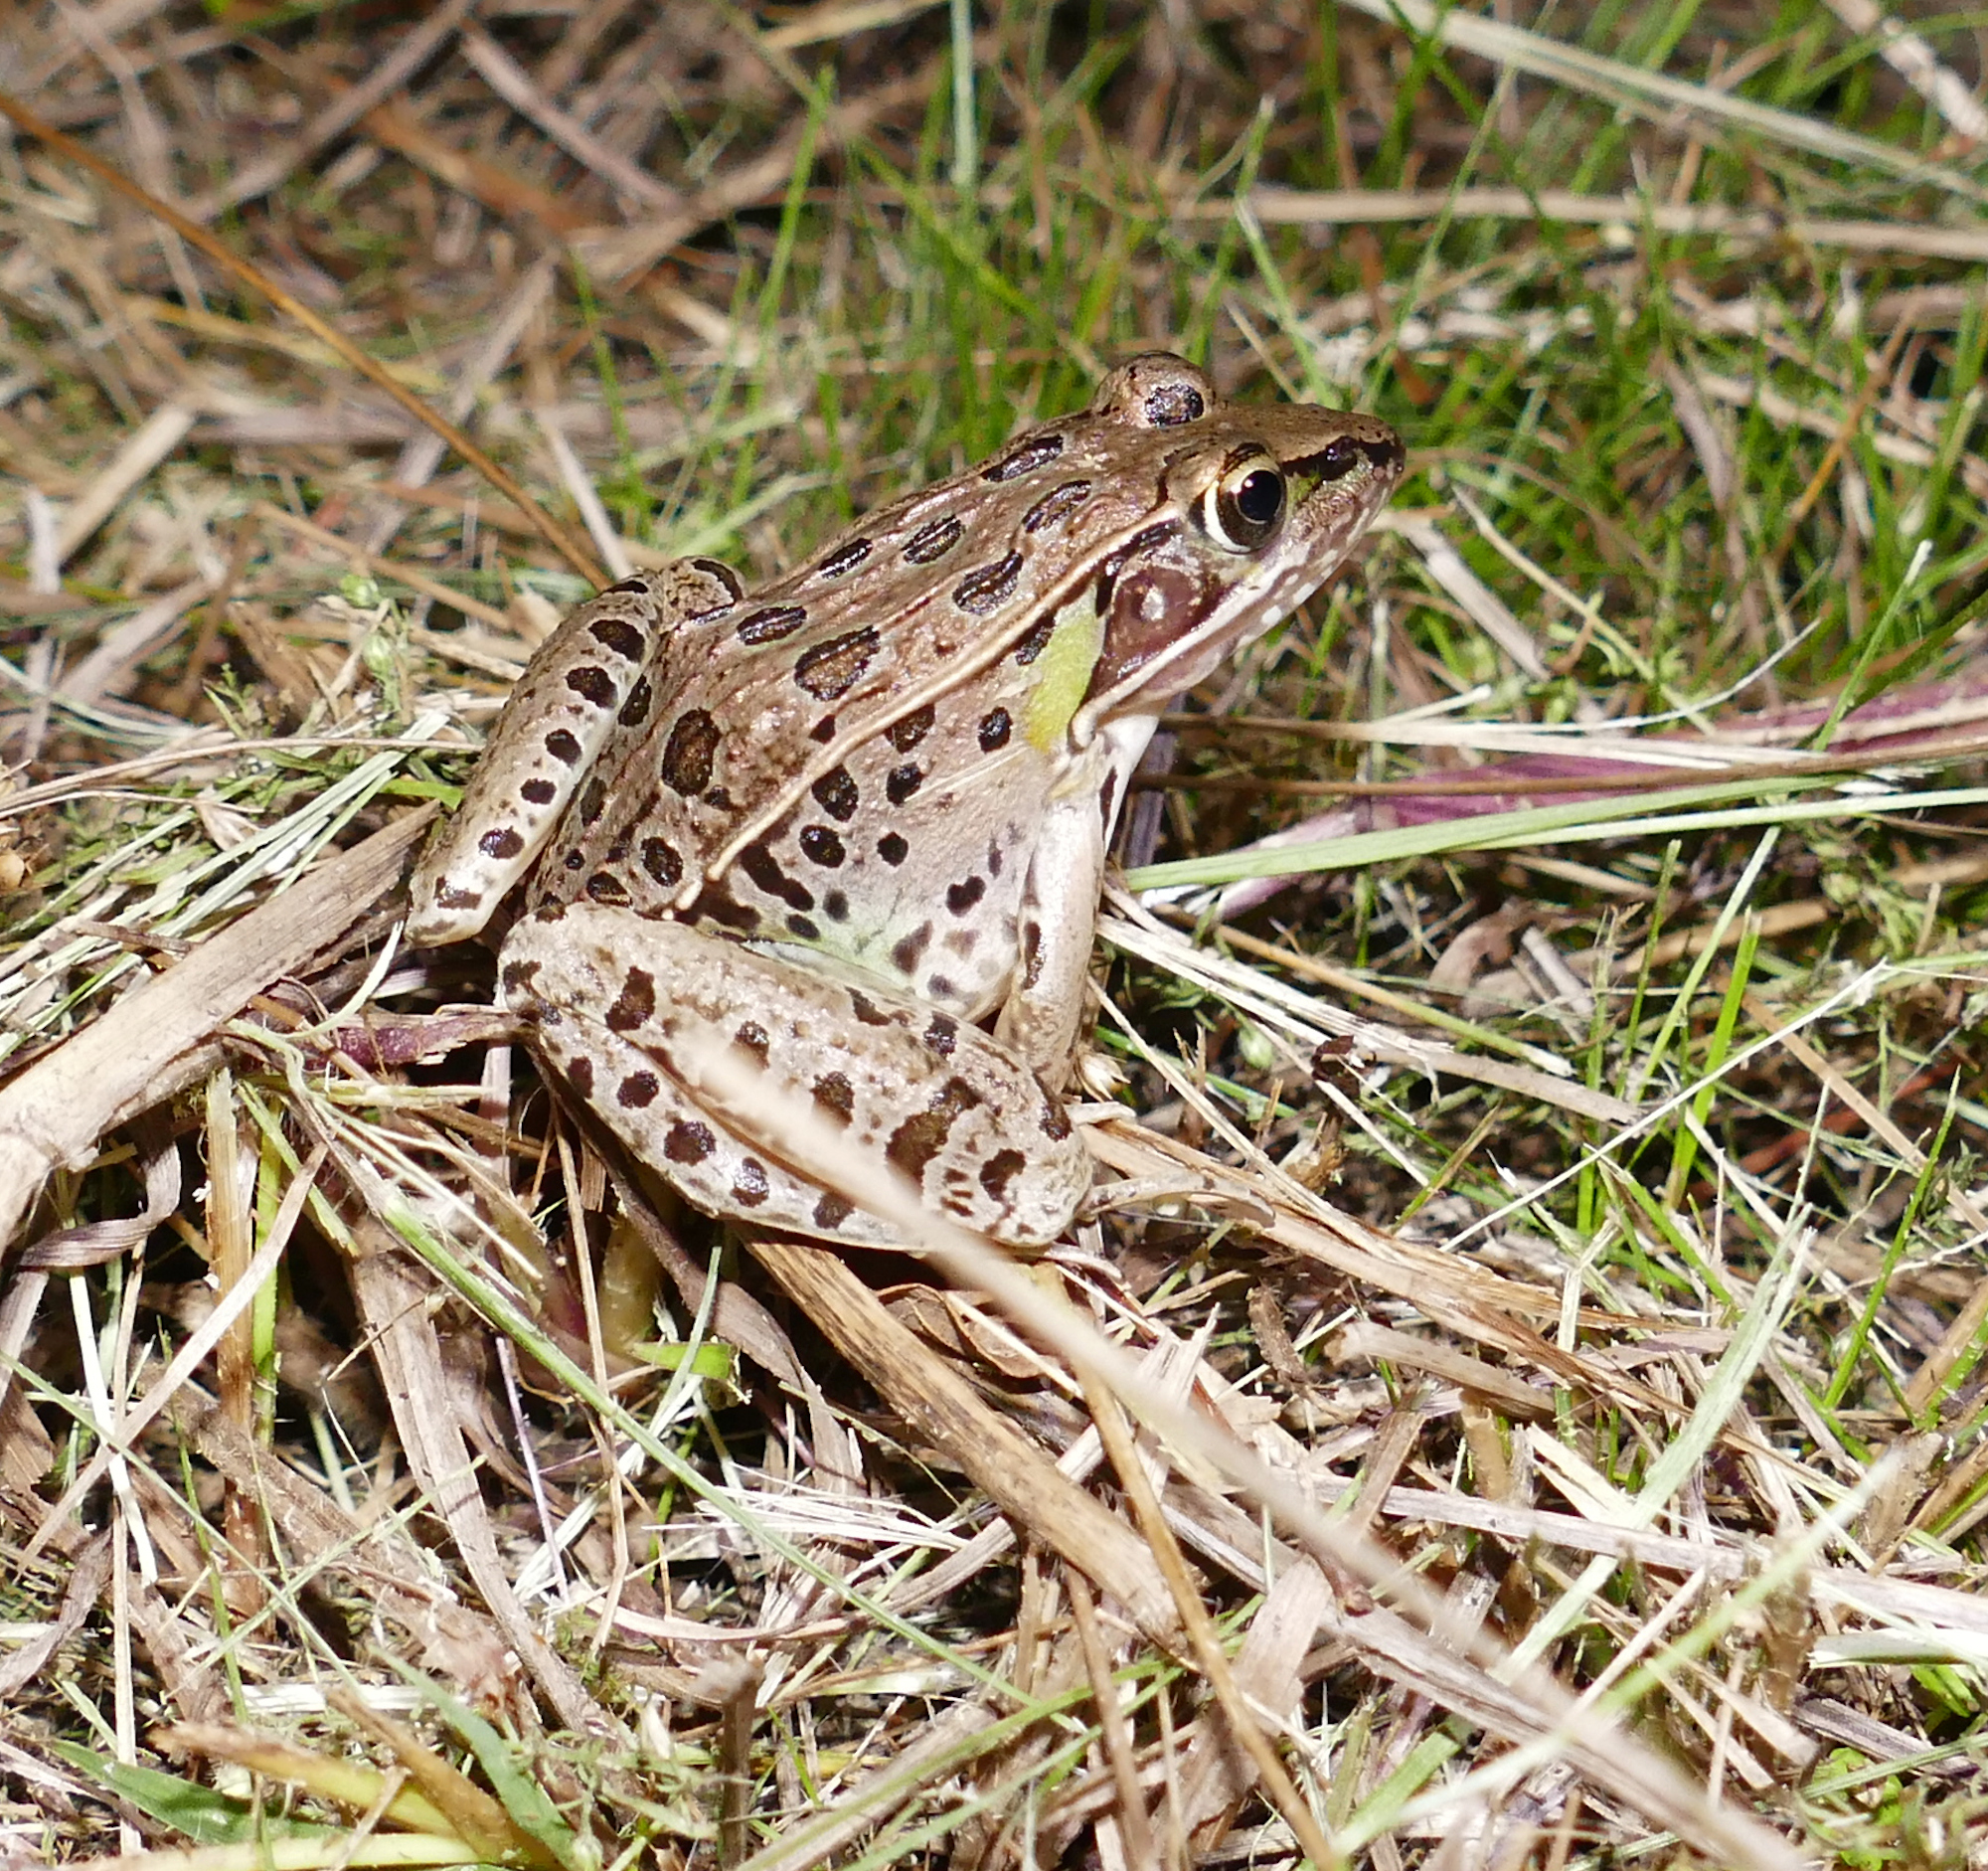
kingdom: Animalia
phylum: Chordata
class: Amphibia
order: Anura
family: Ranidae
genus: Lithobates
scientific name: Lithobates sphenocephalus
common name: Southern leopard frog
